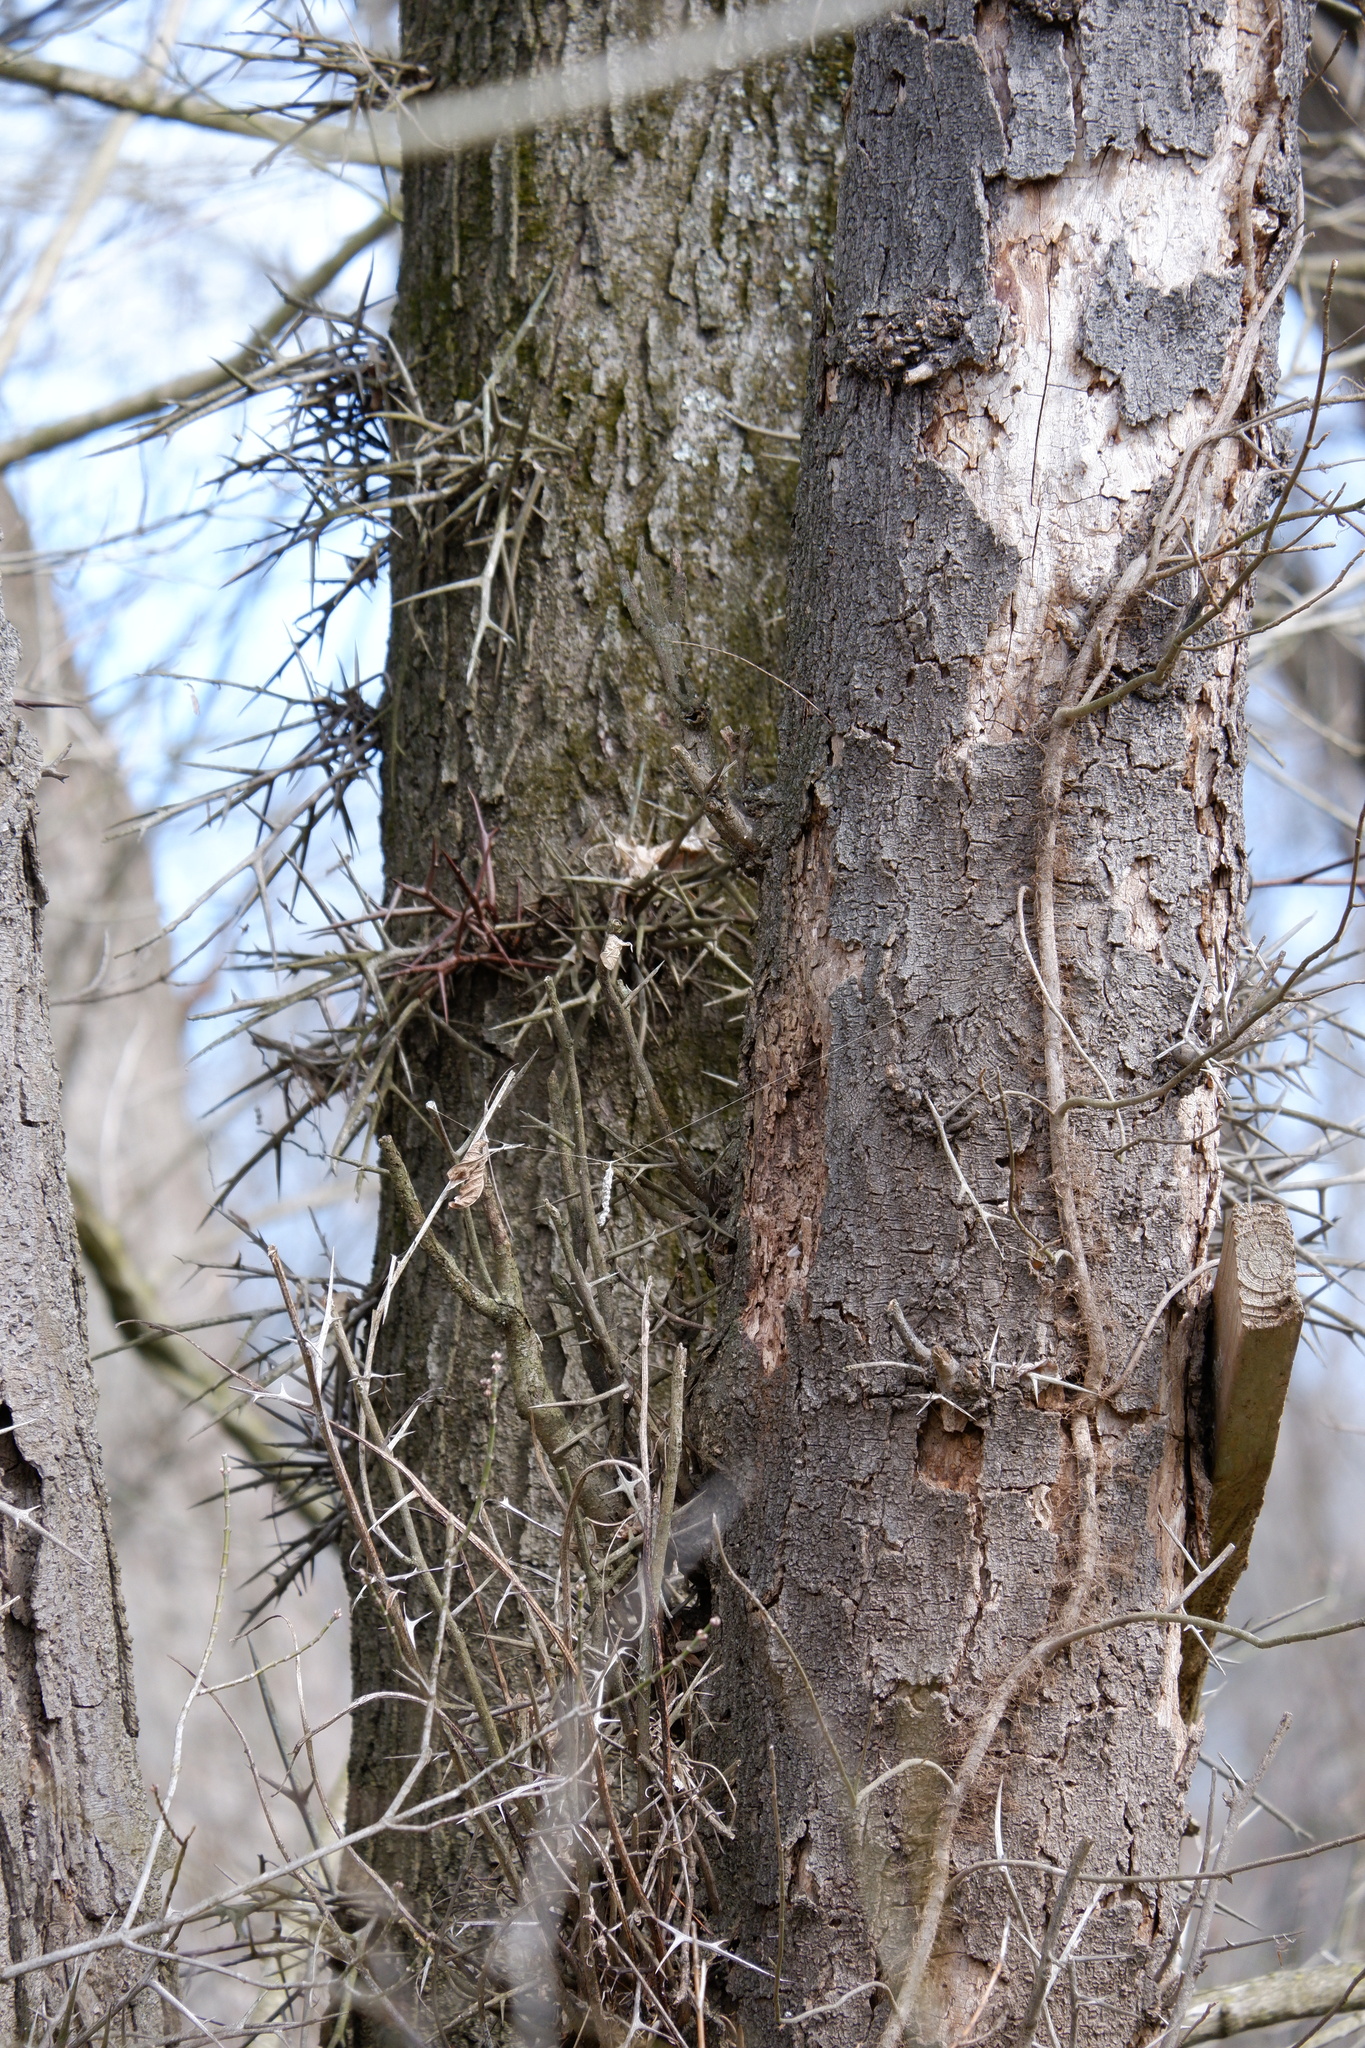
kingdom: Plantae
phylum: Tracheophyta
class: Magnoliopsida
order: Fabales
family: Fabaceae
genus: Gleditsia
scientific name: Gleditsia triacanthos
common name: Common honeylocust
